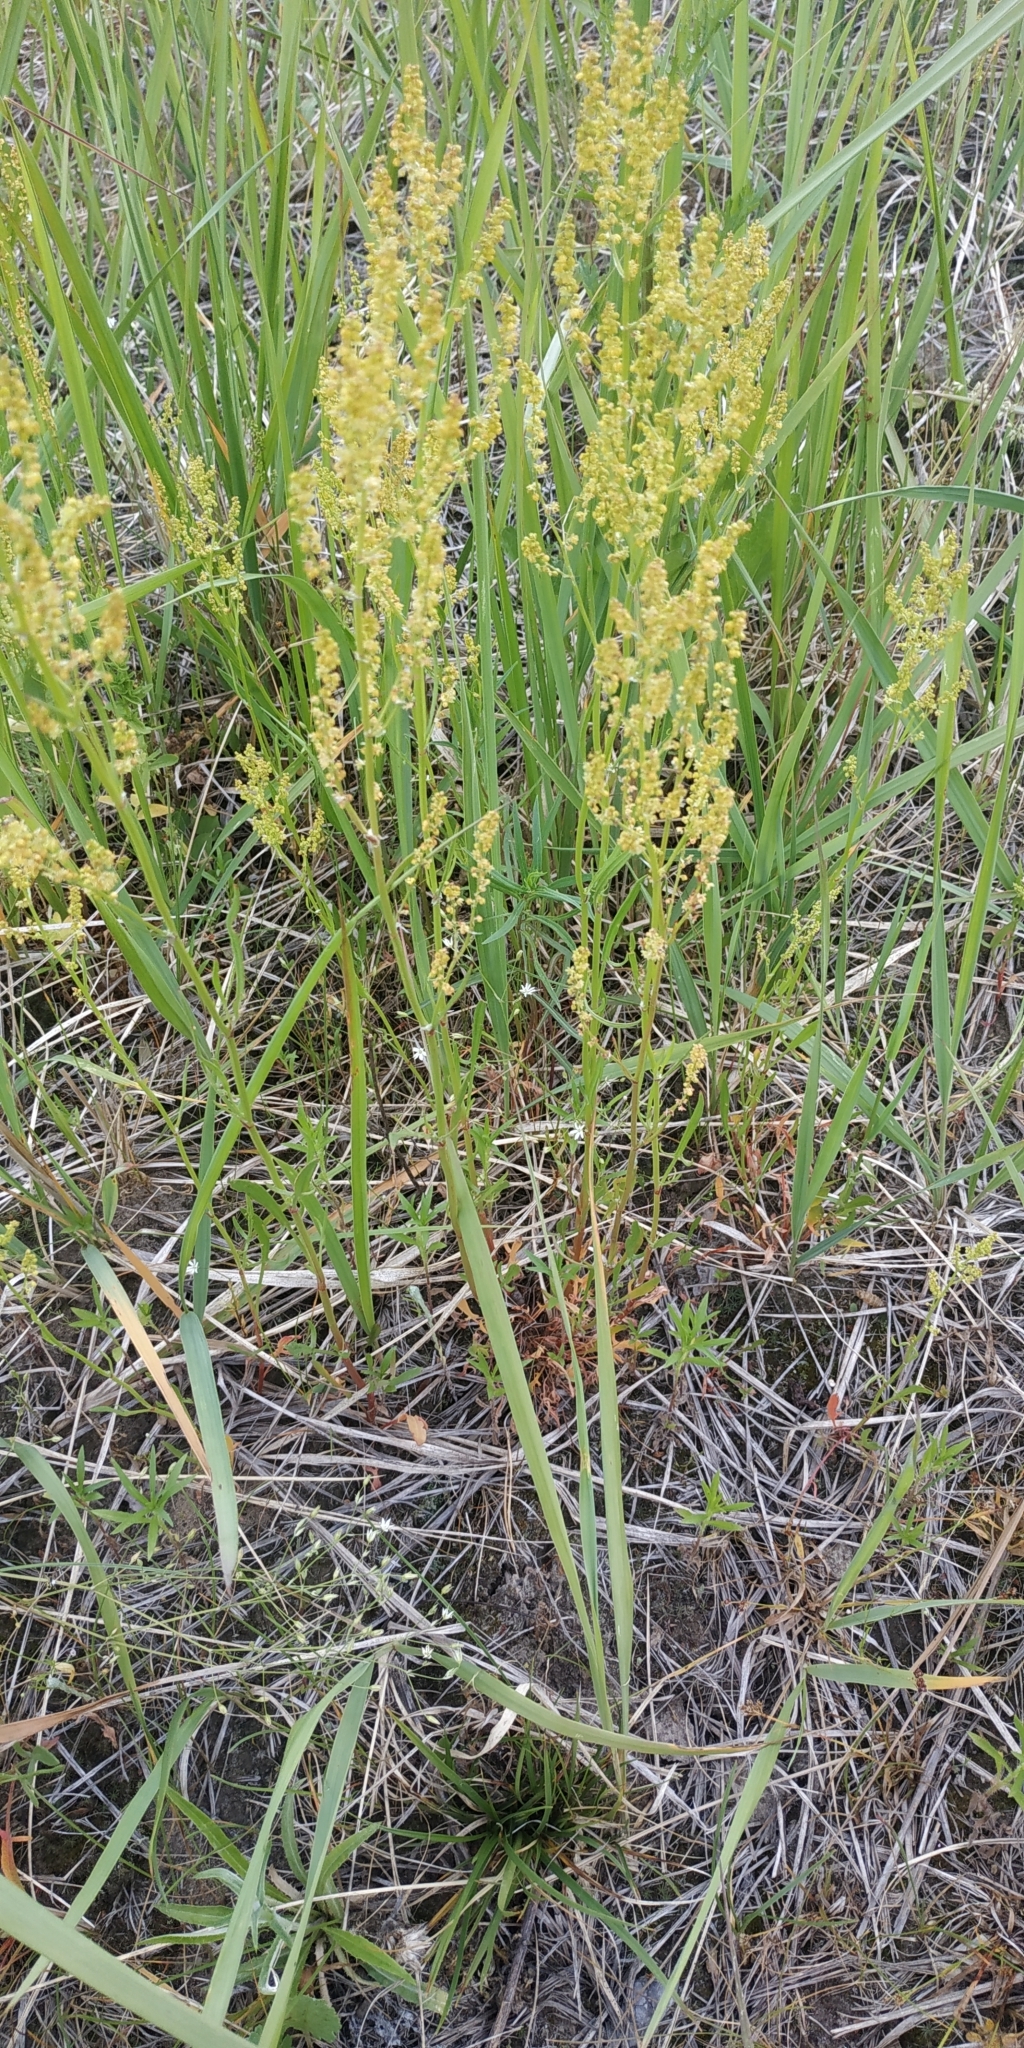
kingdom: Plantae
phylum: Tracheophyta
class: Magnoliopsida
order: Caryophyllales
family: Polygonaceae
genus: Rumex
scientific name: Rumex acetosella
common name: Common sheep sorrel
